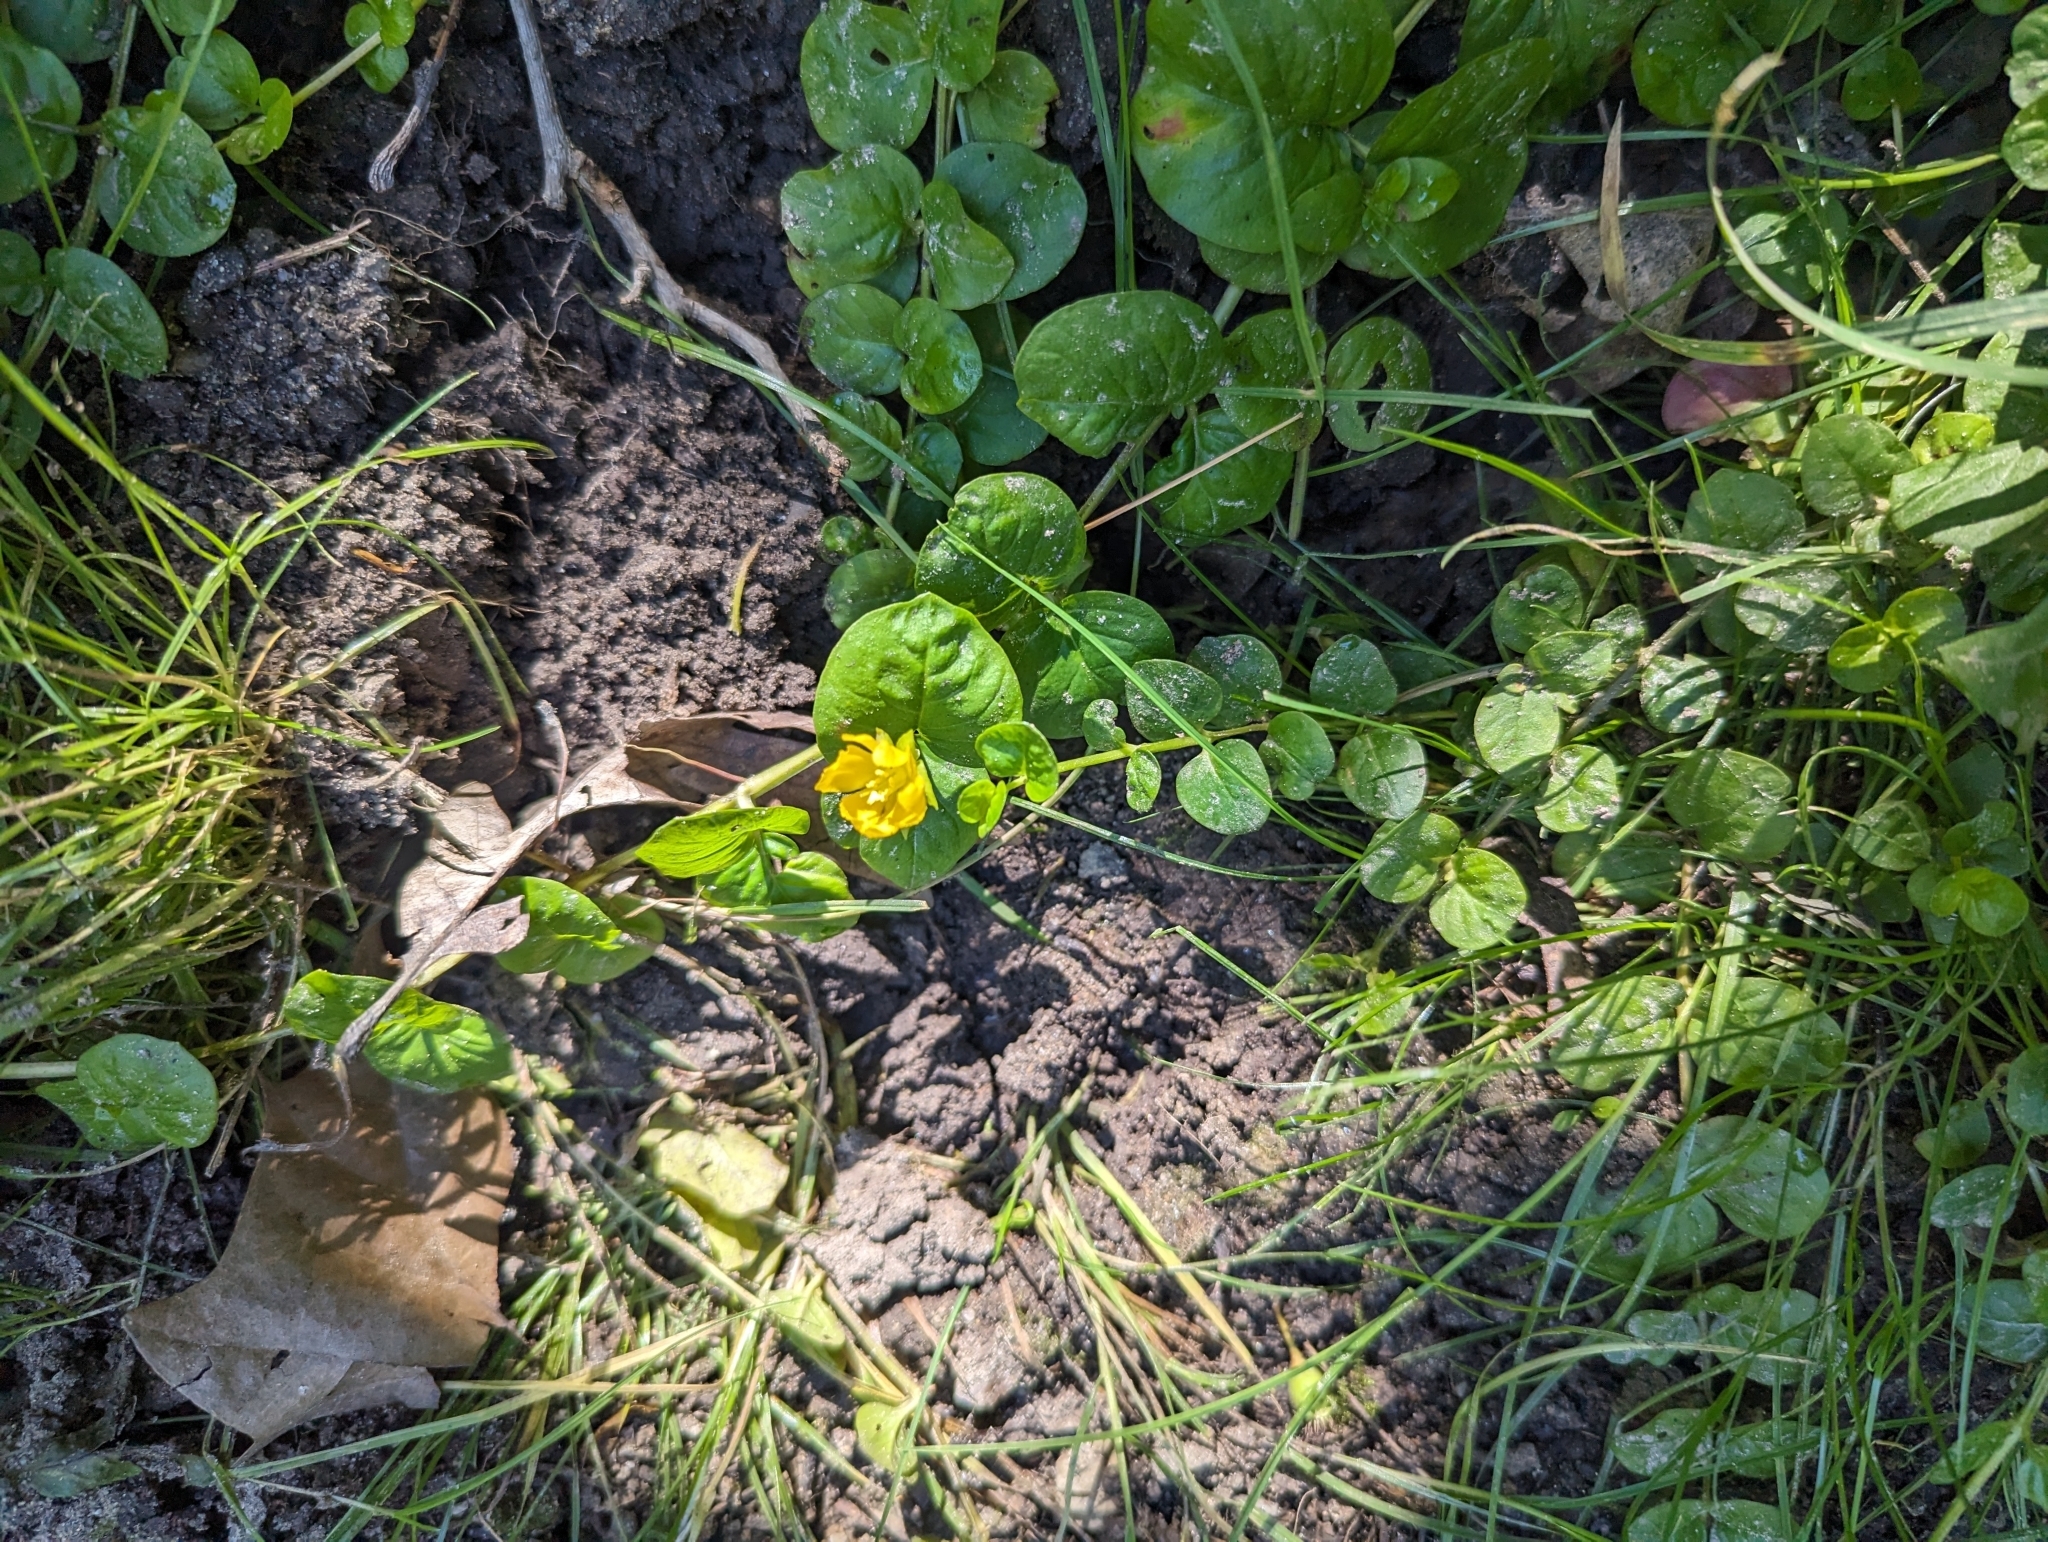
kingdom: Plantae
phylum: Tracheophyta
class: Magnoliopsida
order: Ericales
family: Primulaceae
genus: Lysimachia
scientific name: Lysimachia nummularia
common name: Moneywort
